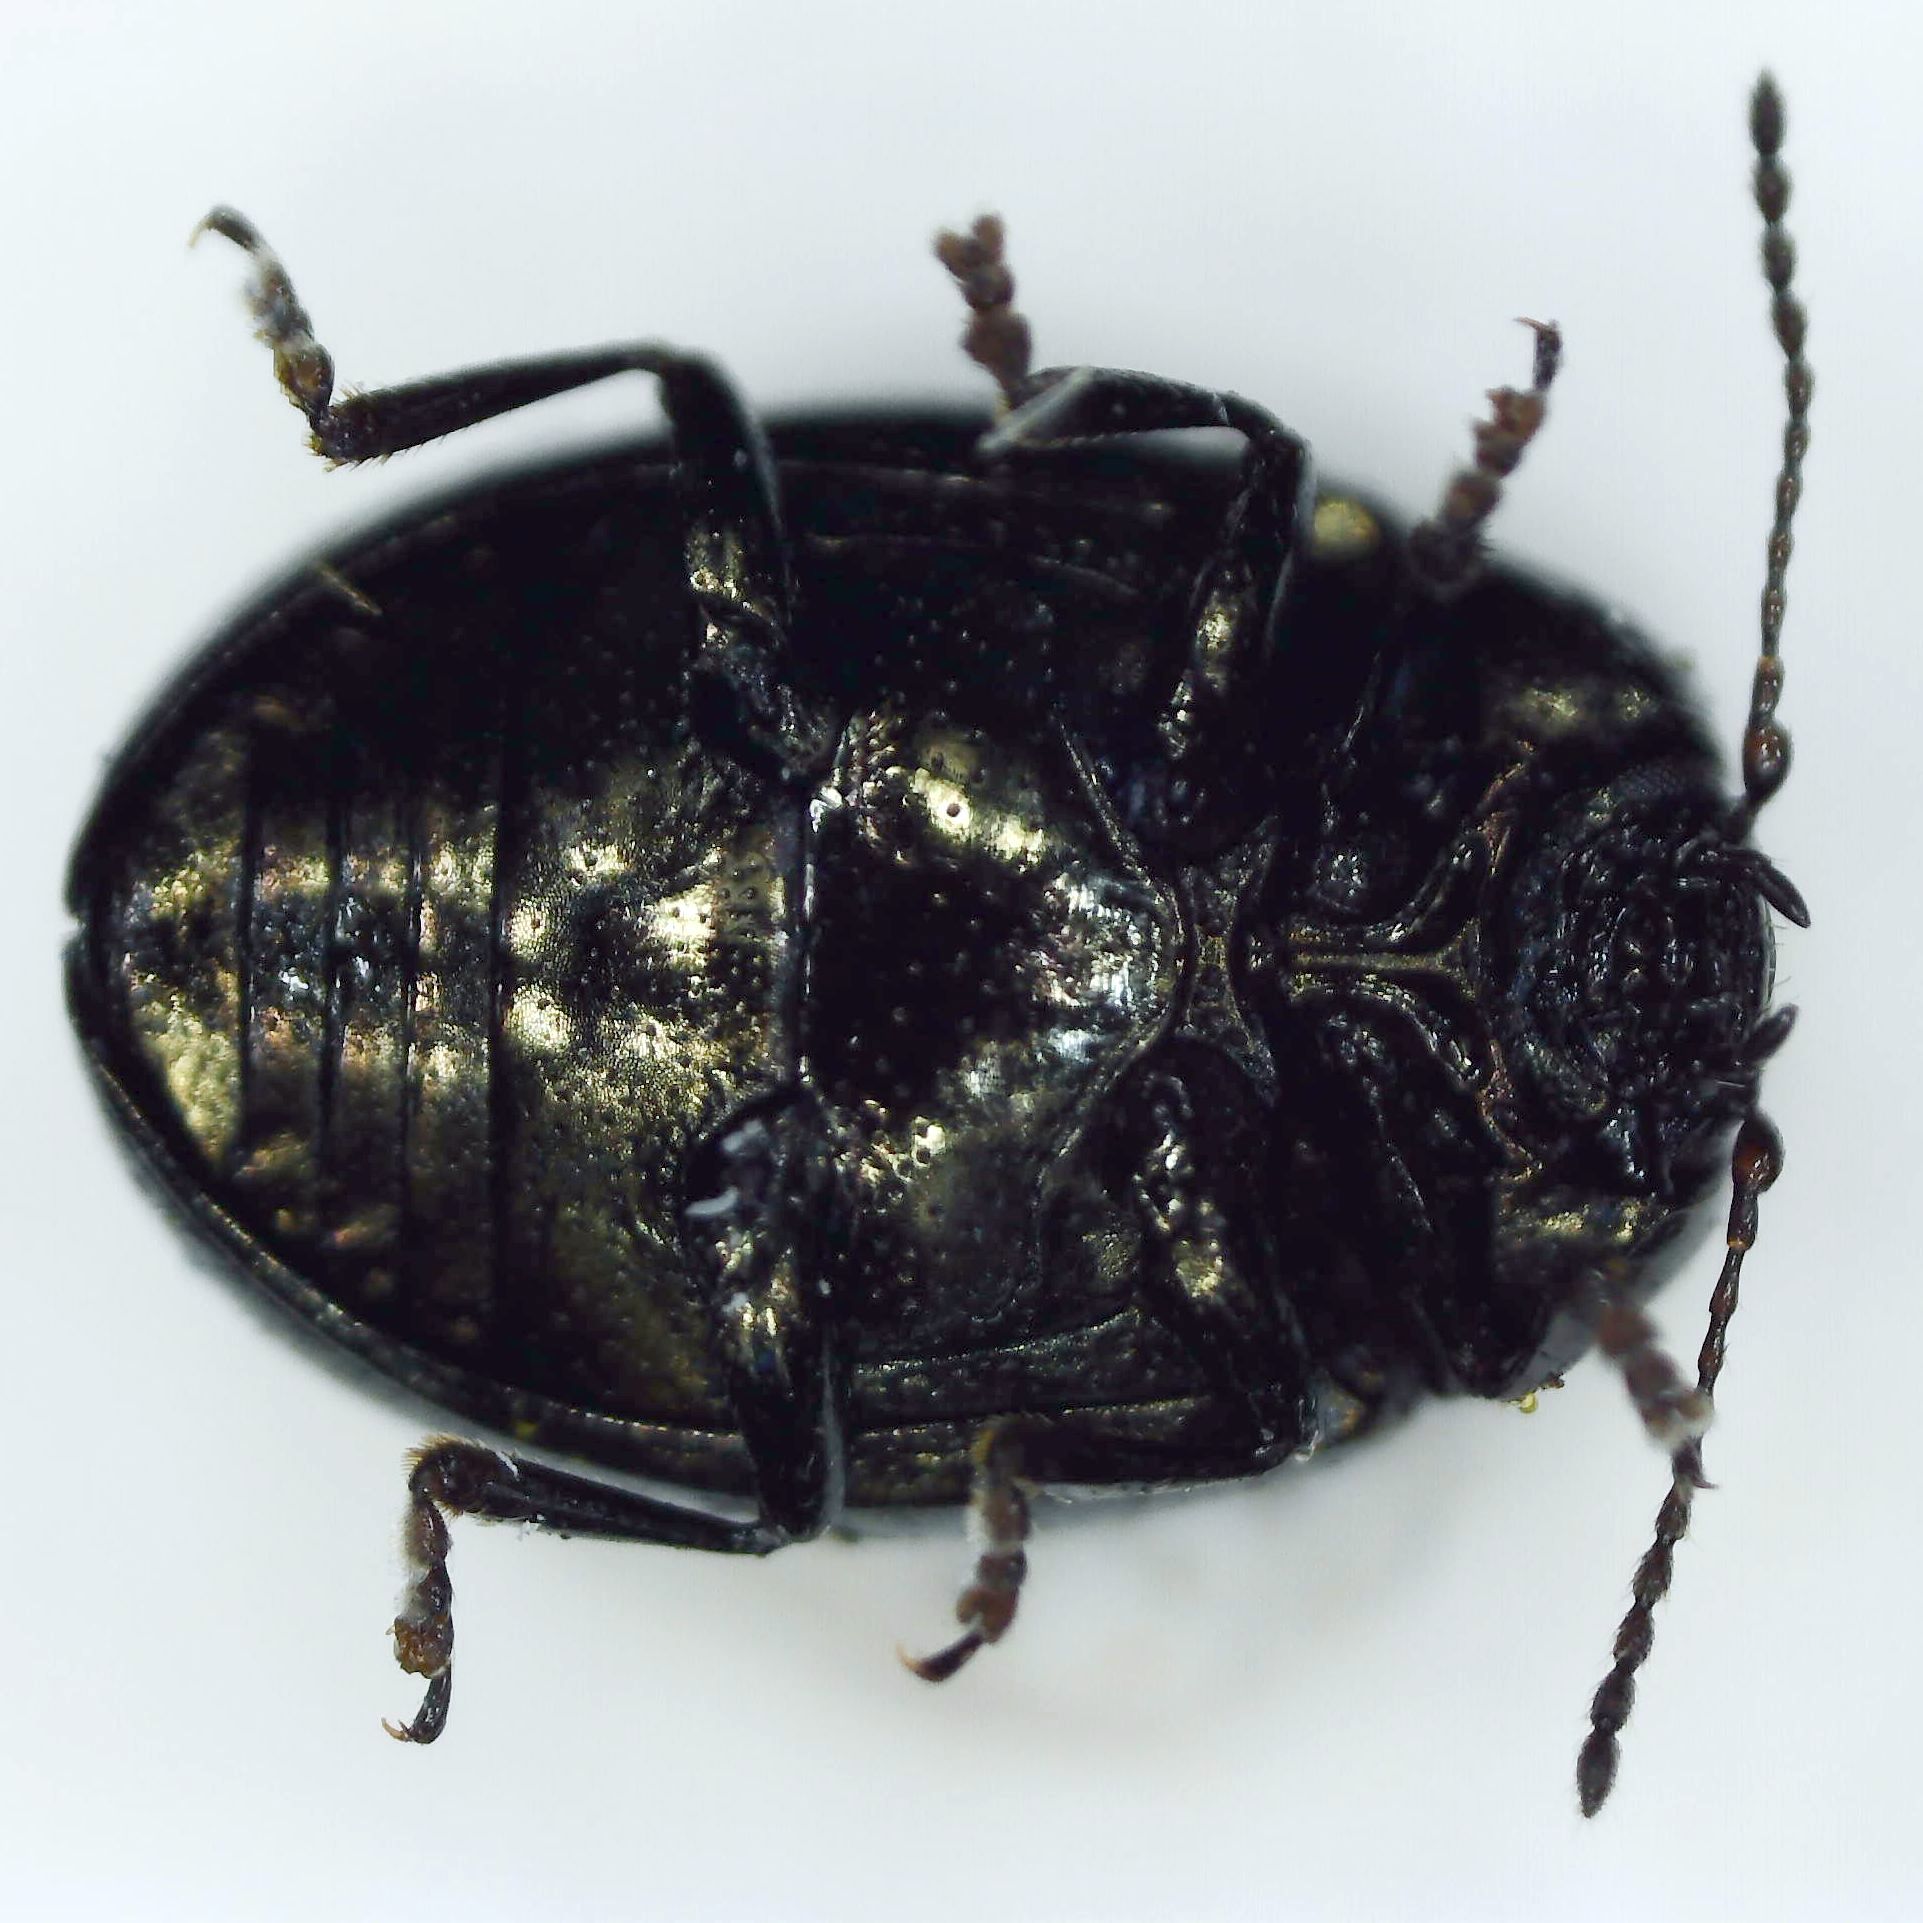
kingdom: Animalia
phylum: Arthropoda
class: Insecta
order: Coleoptera
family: Chrysomelidae
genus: Phaedon
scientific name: Phaedon tumidulus
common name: Celery leaf beetle
